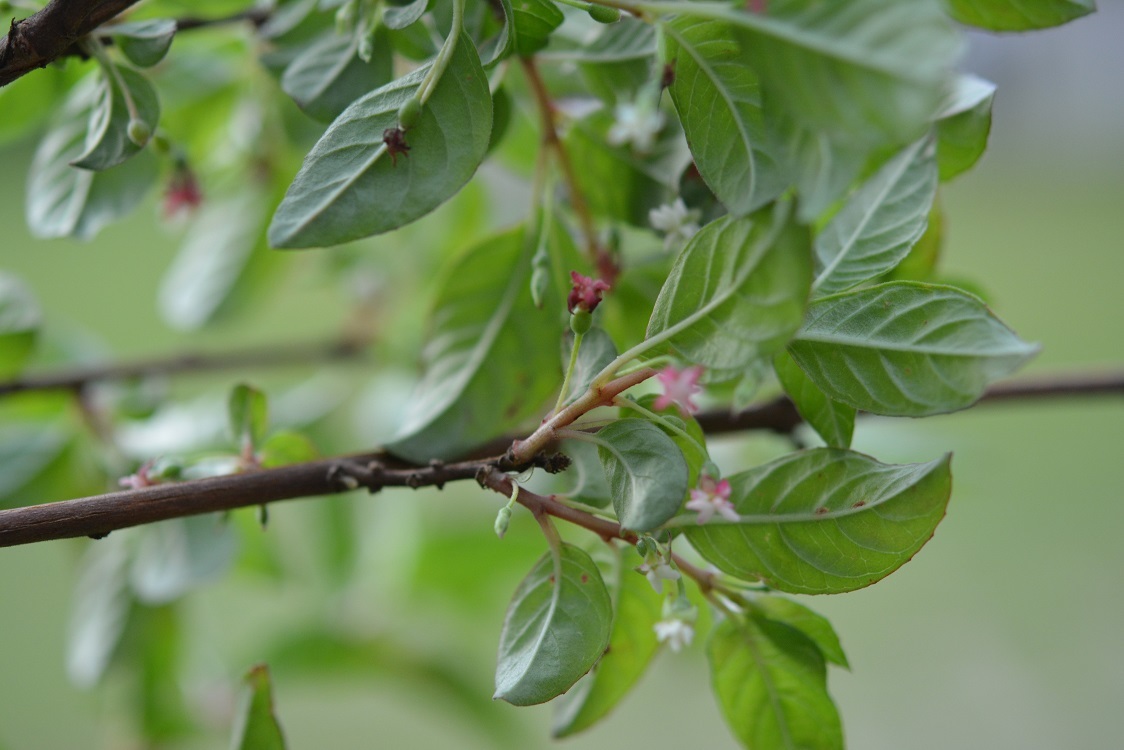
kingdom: Plantae
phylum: Tracheophyta
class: Magnoliopsida
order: Myrtales
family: Onagraceae
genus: Fuchsia
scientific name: Fuchsia encliandra
